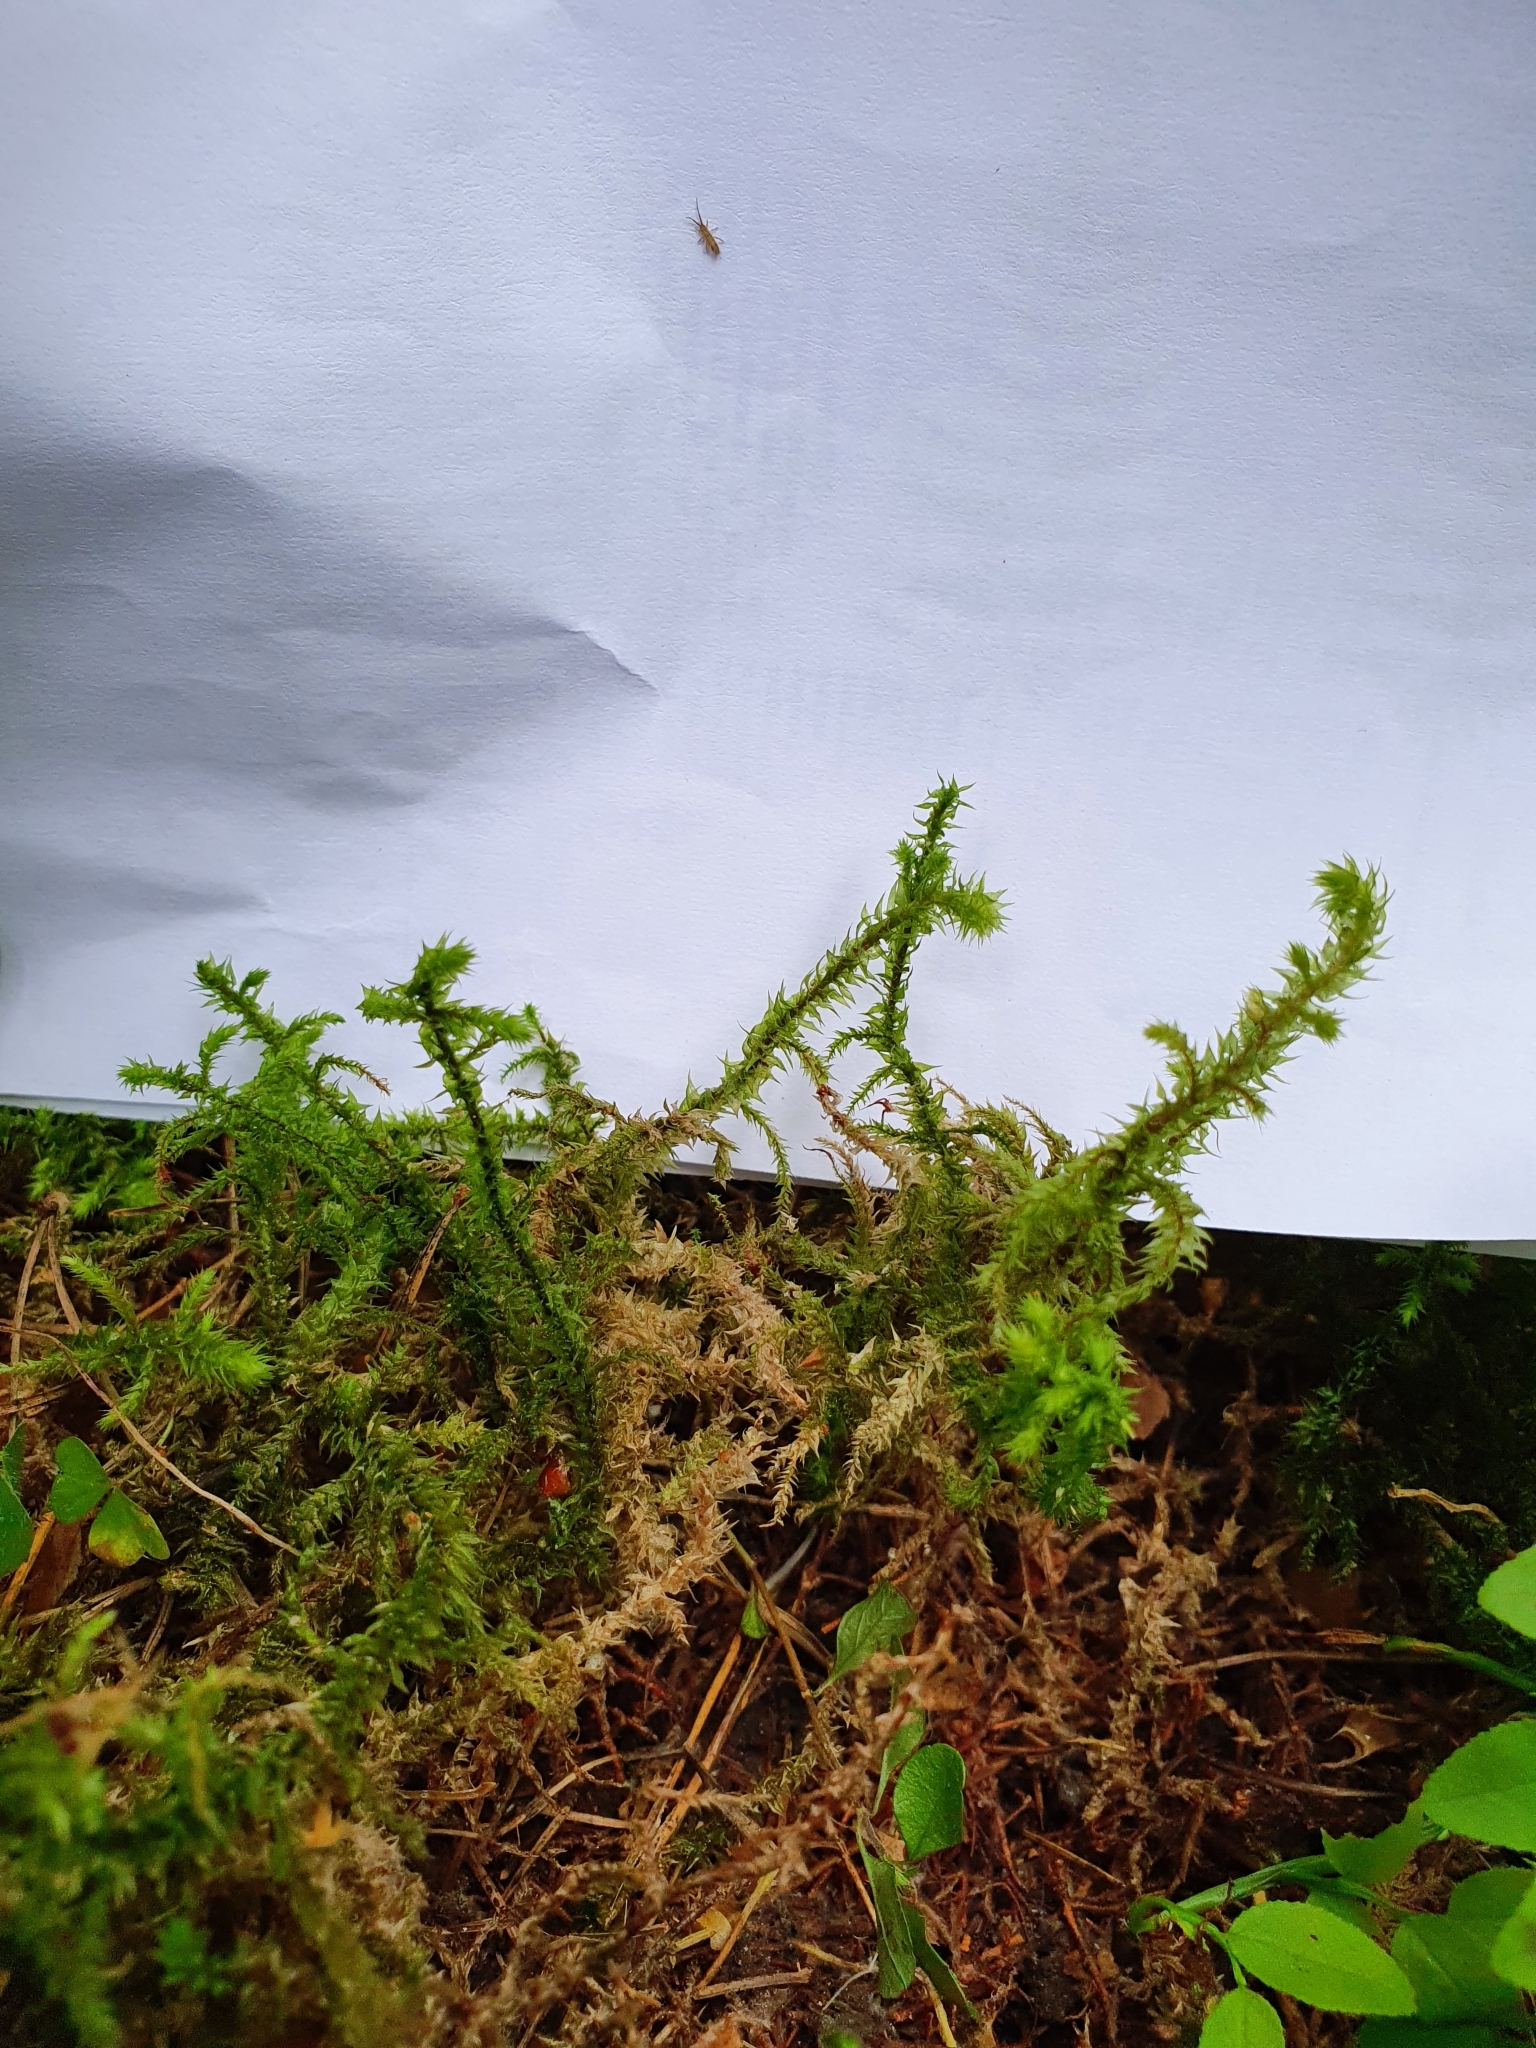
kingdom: Plantae
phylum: Bryophyta
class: Bryopsida
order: Hypnales
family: Hylocomiaceae
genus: Hylocomiadelphus
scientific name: Hylocomiadelphus triquetrus
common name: Rough goose neck moss
